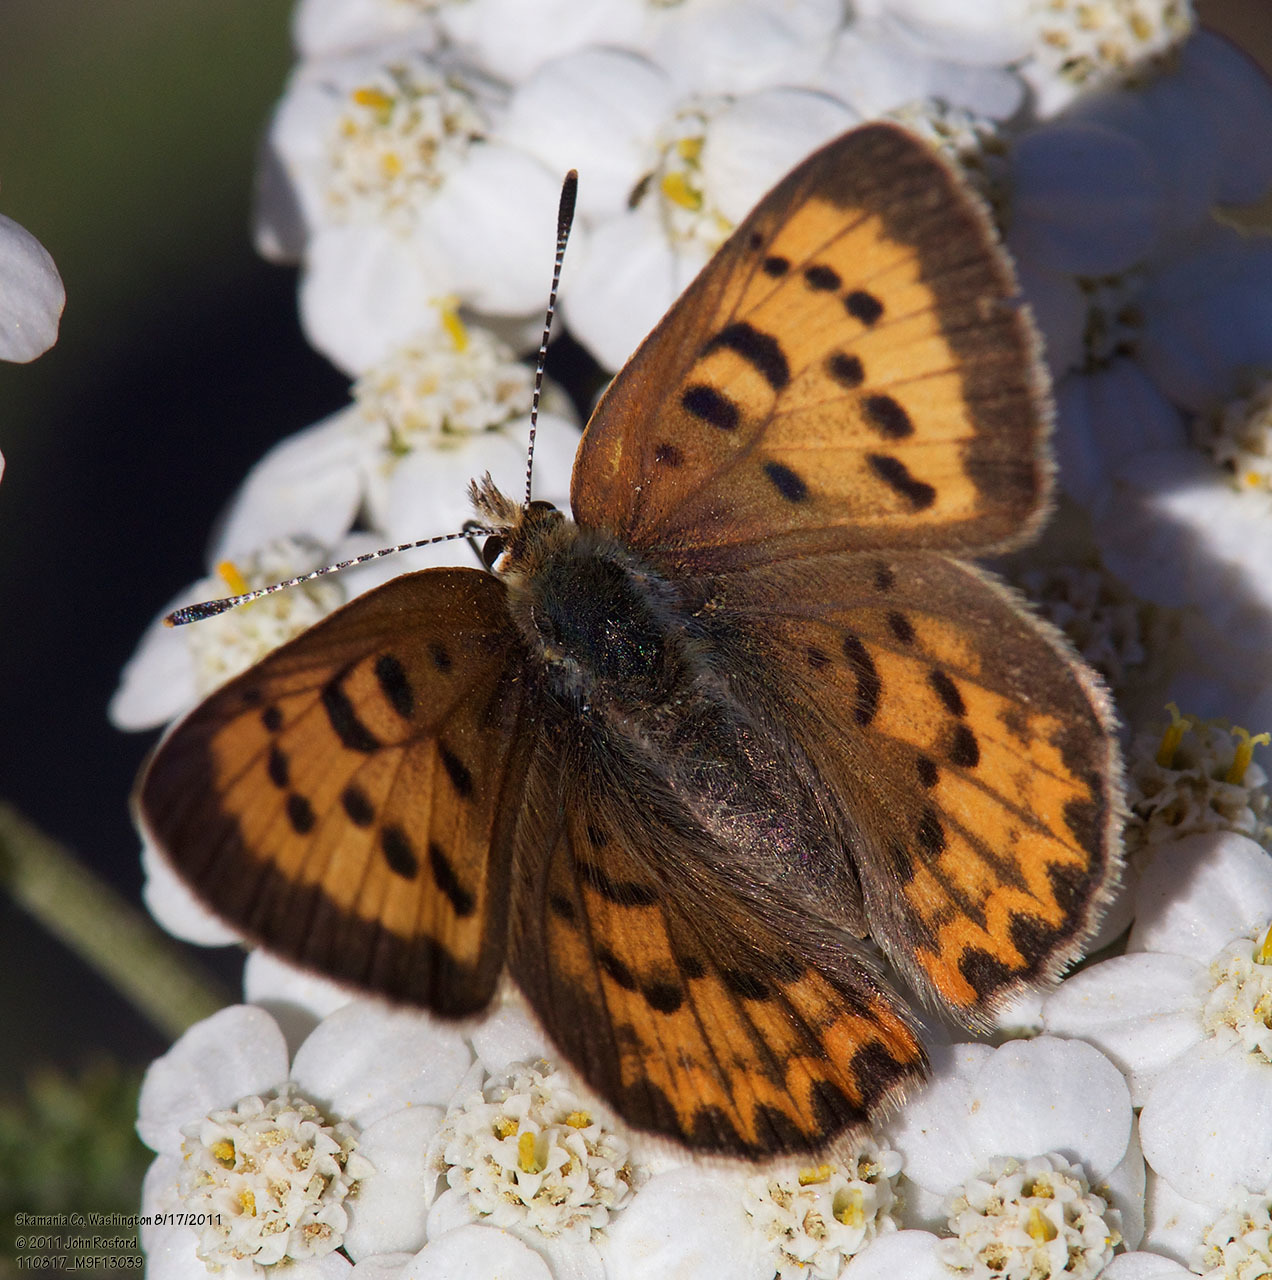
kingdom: Animalia
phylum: Arthropoda
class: Insecta
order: Lepidoptera
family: Lycaenidae
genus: Tharsalea
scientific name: Tharsalea helloides
